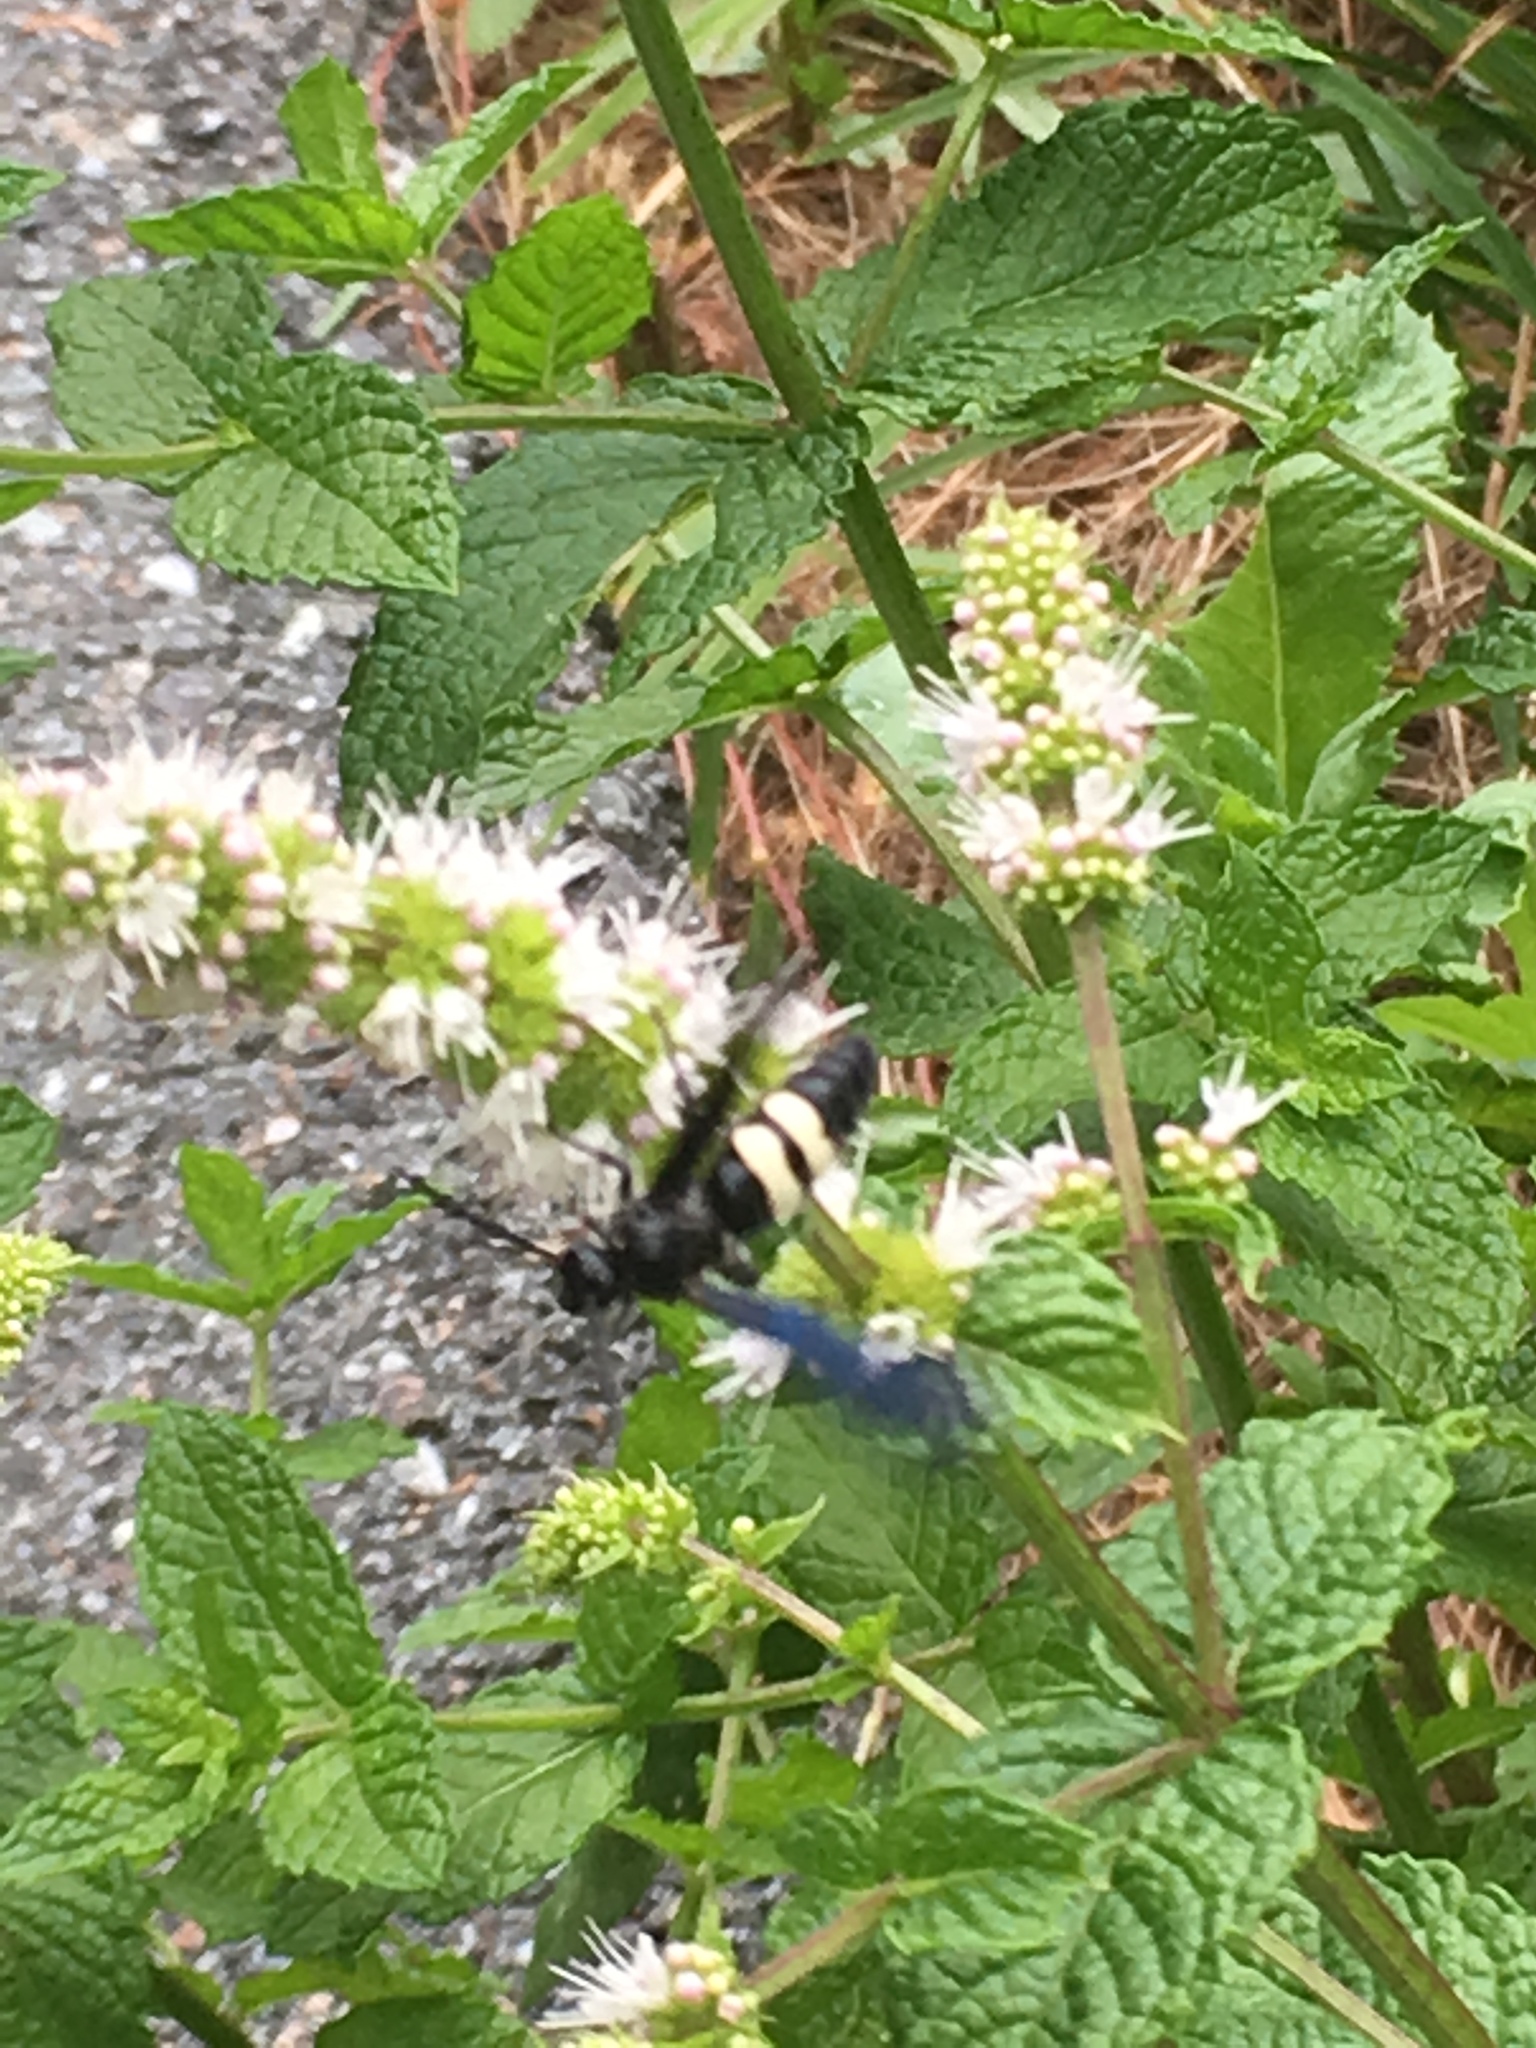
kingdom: Animalia
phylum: Arthropoda
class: Insecta
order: Hymenoptera
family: Scoliidae
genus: Scolia
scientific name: Scolia bicincta
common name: Double-banded scoliid wasp
